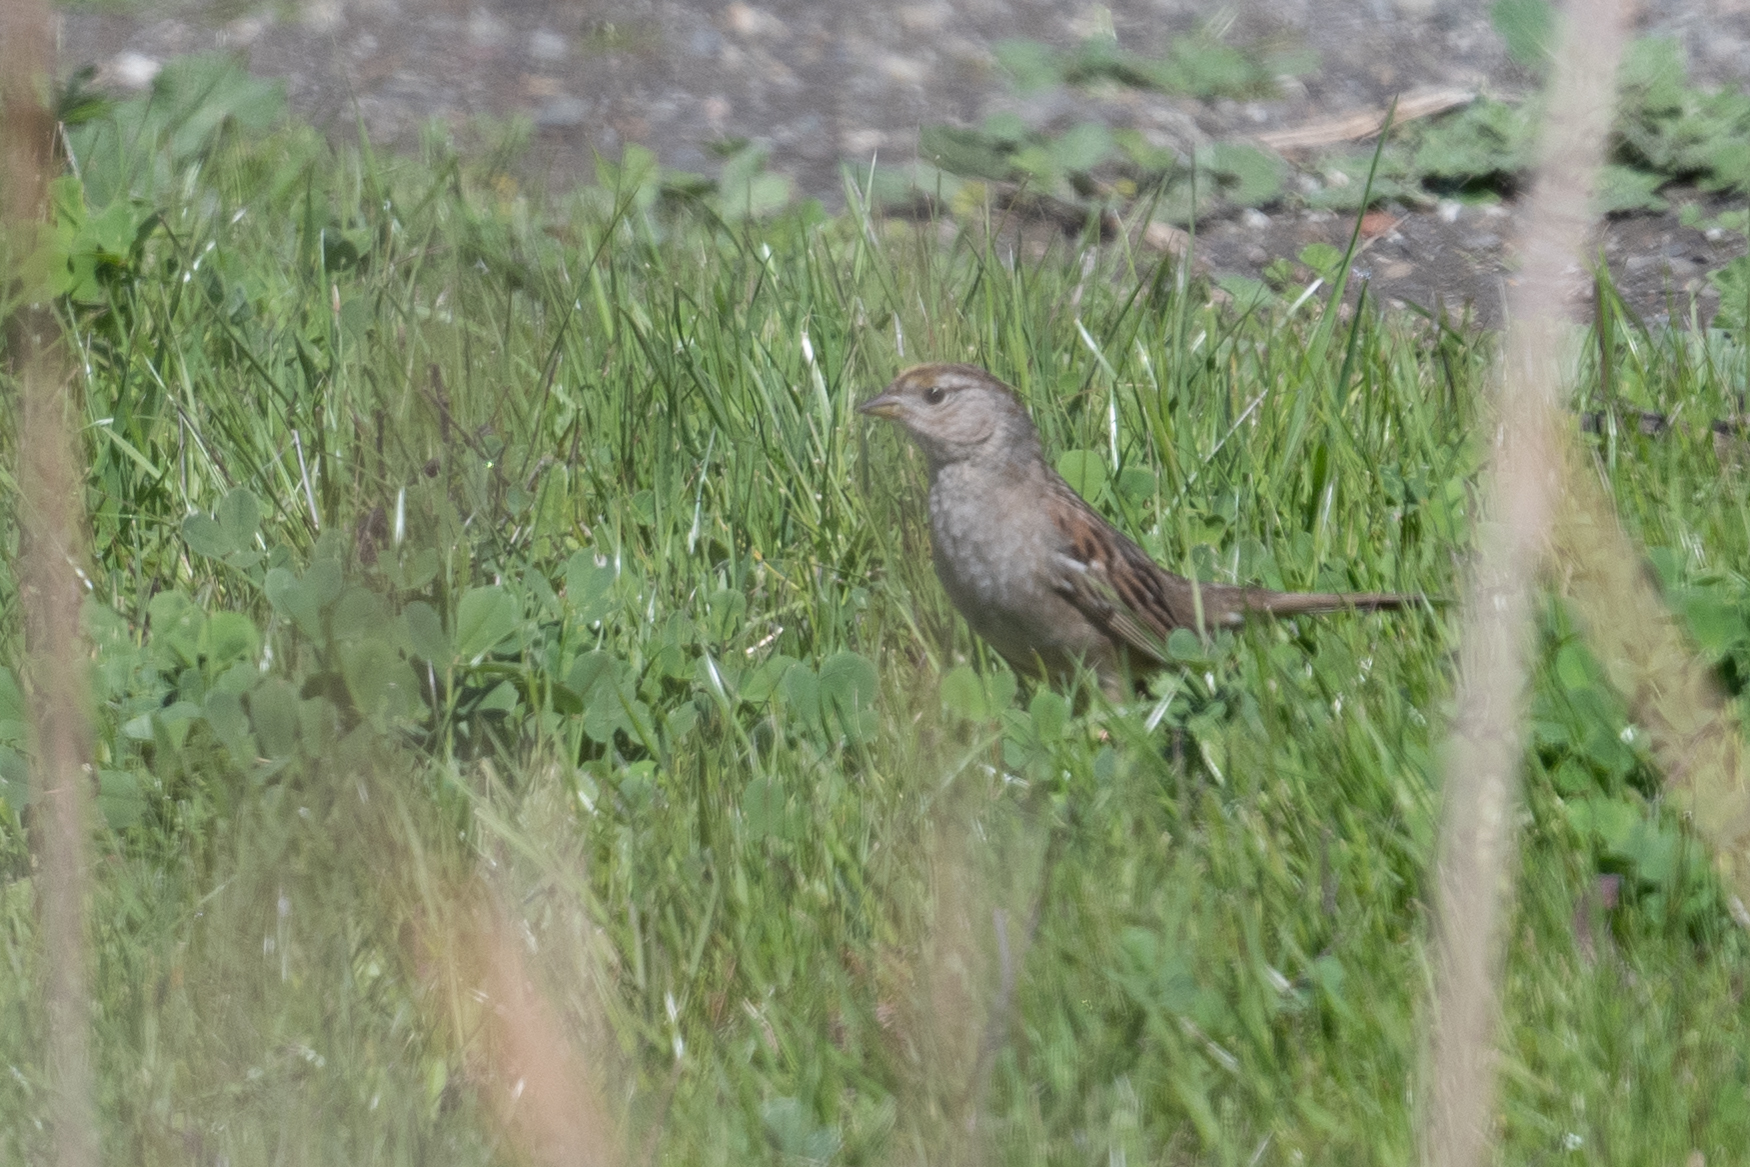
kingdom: Animalia
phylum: Chordata
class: Aves
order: Passeriformes
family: Passerellidae
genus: Zonotrichia
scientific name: Zonotrichia atricapilla
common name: Golden-crowned sparrow
